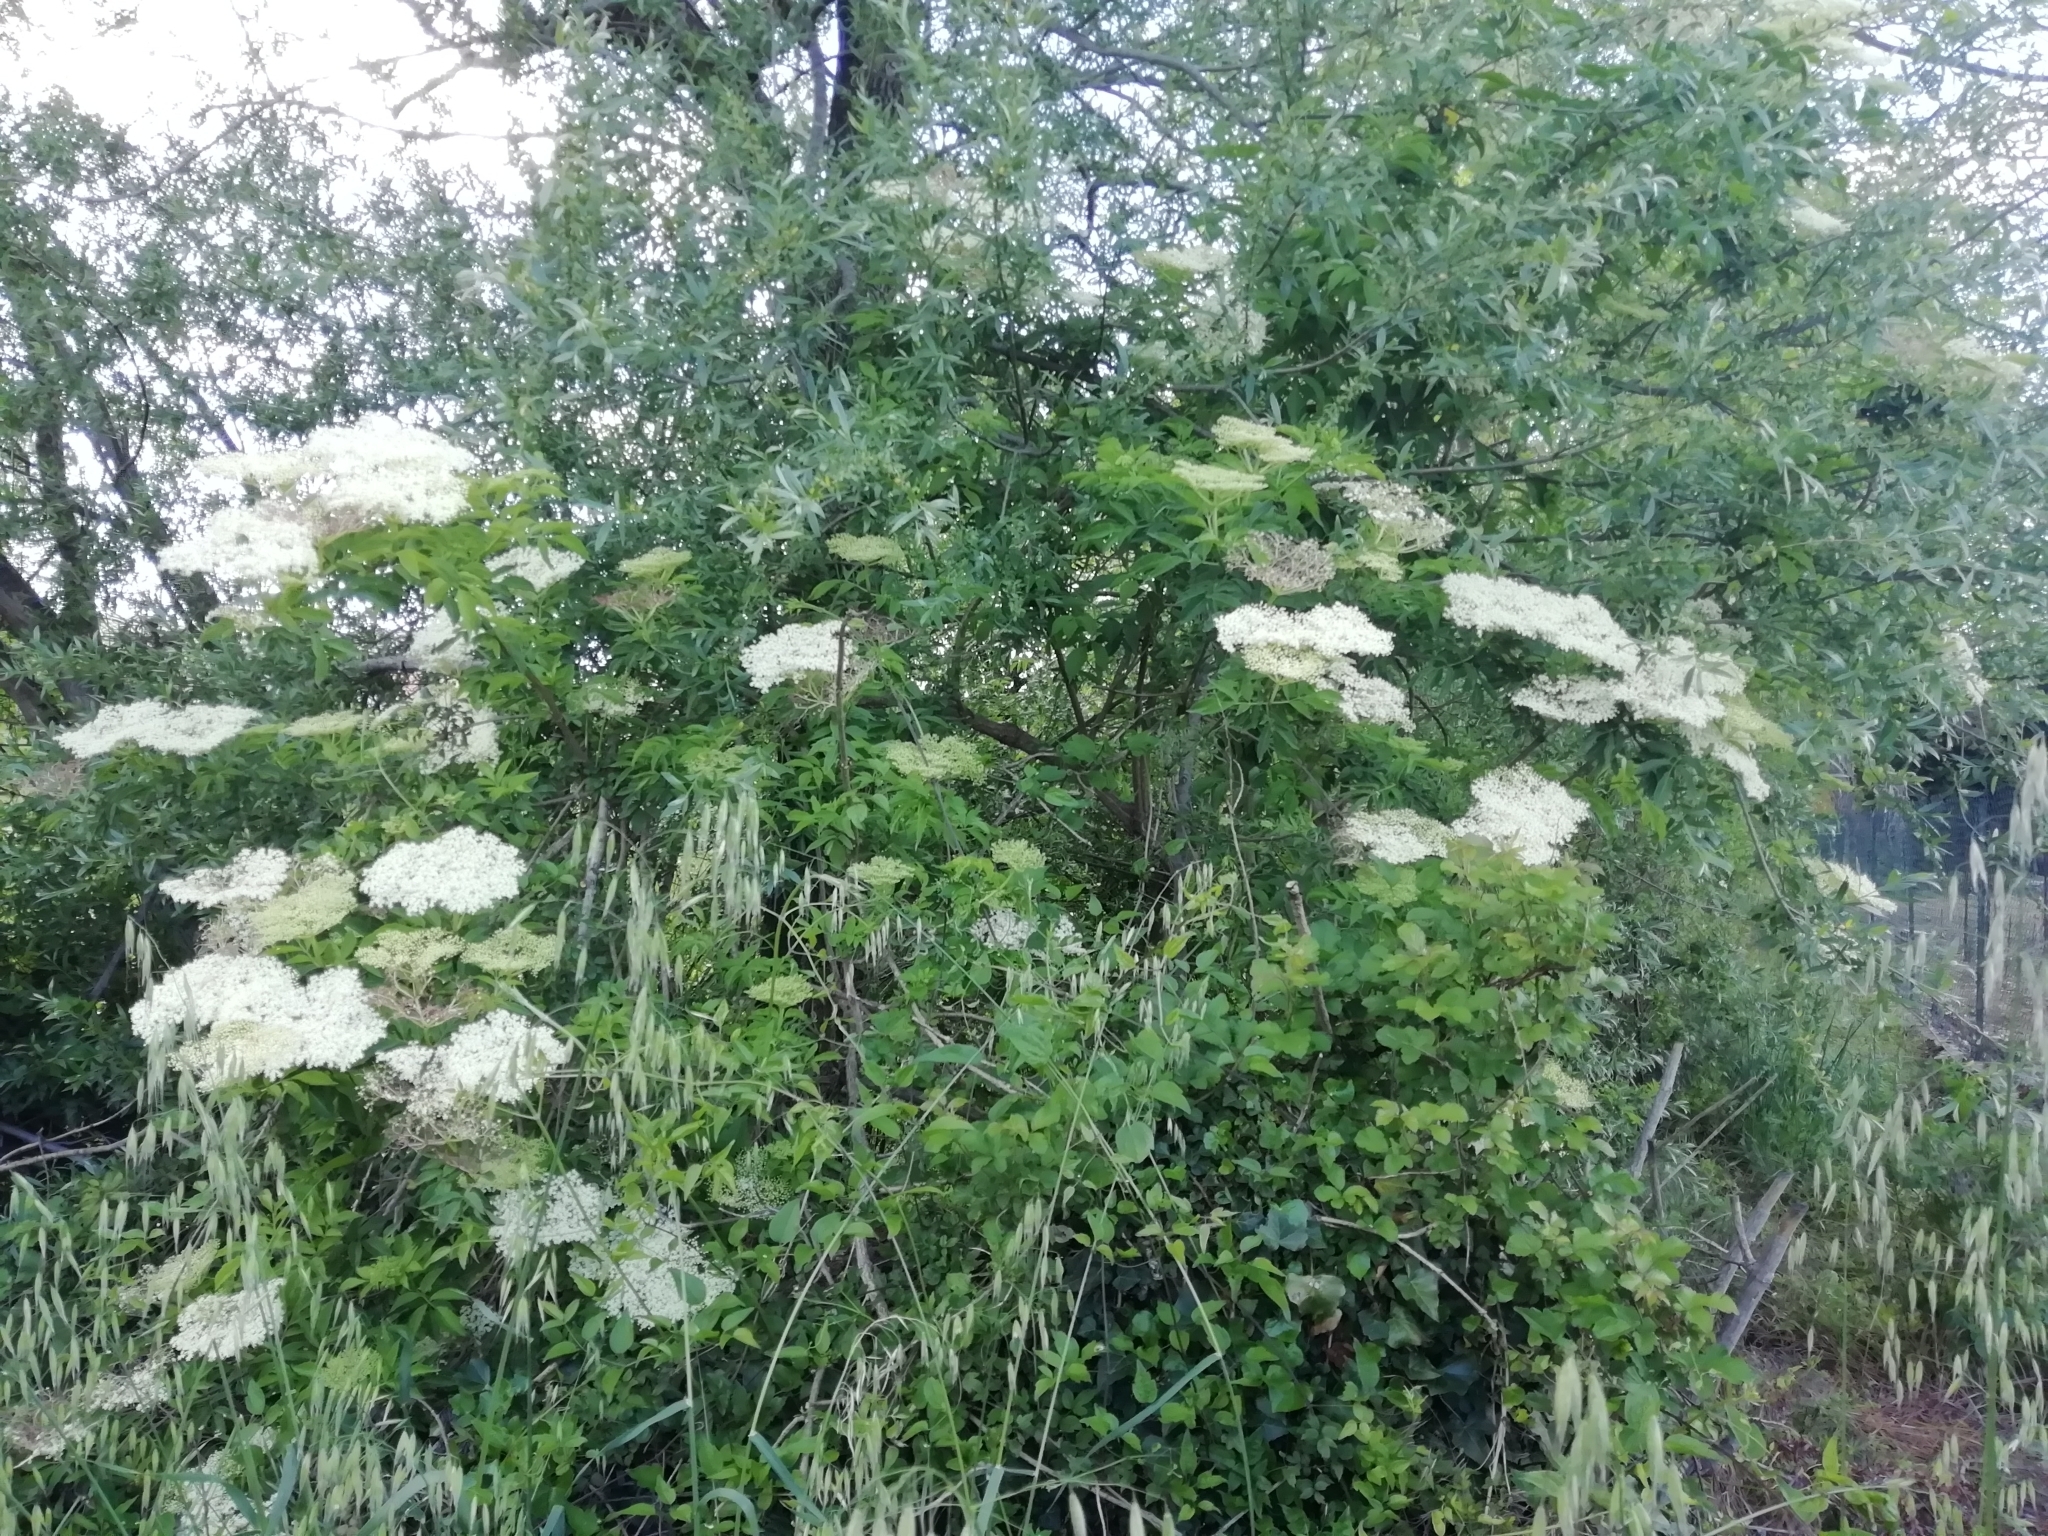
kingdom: Plantae
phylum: Tracheophyta
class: Magnoliopsida
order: Dipsacales
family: Viburnaceae
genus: Sambucus
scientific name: Sambucus nigra
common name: Elder
